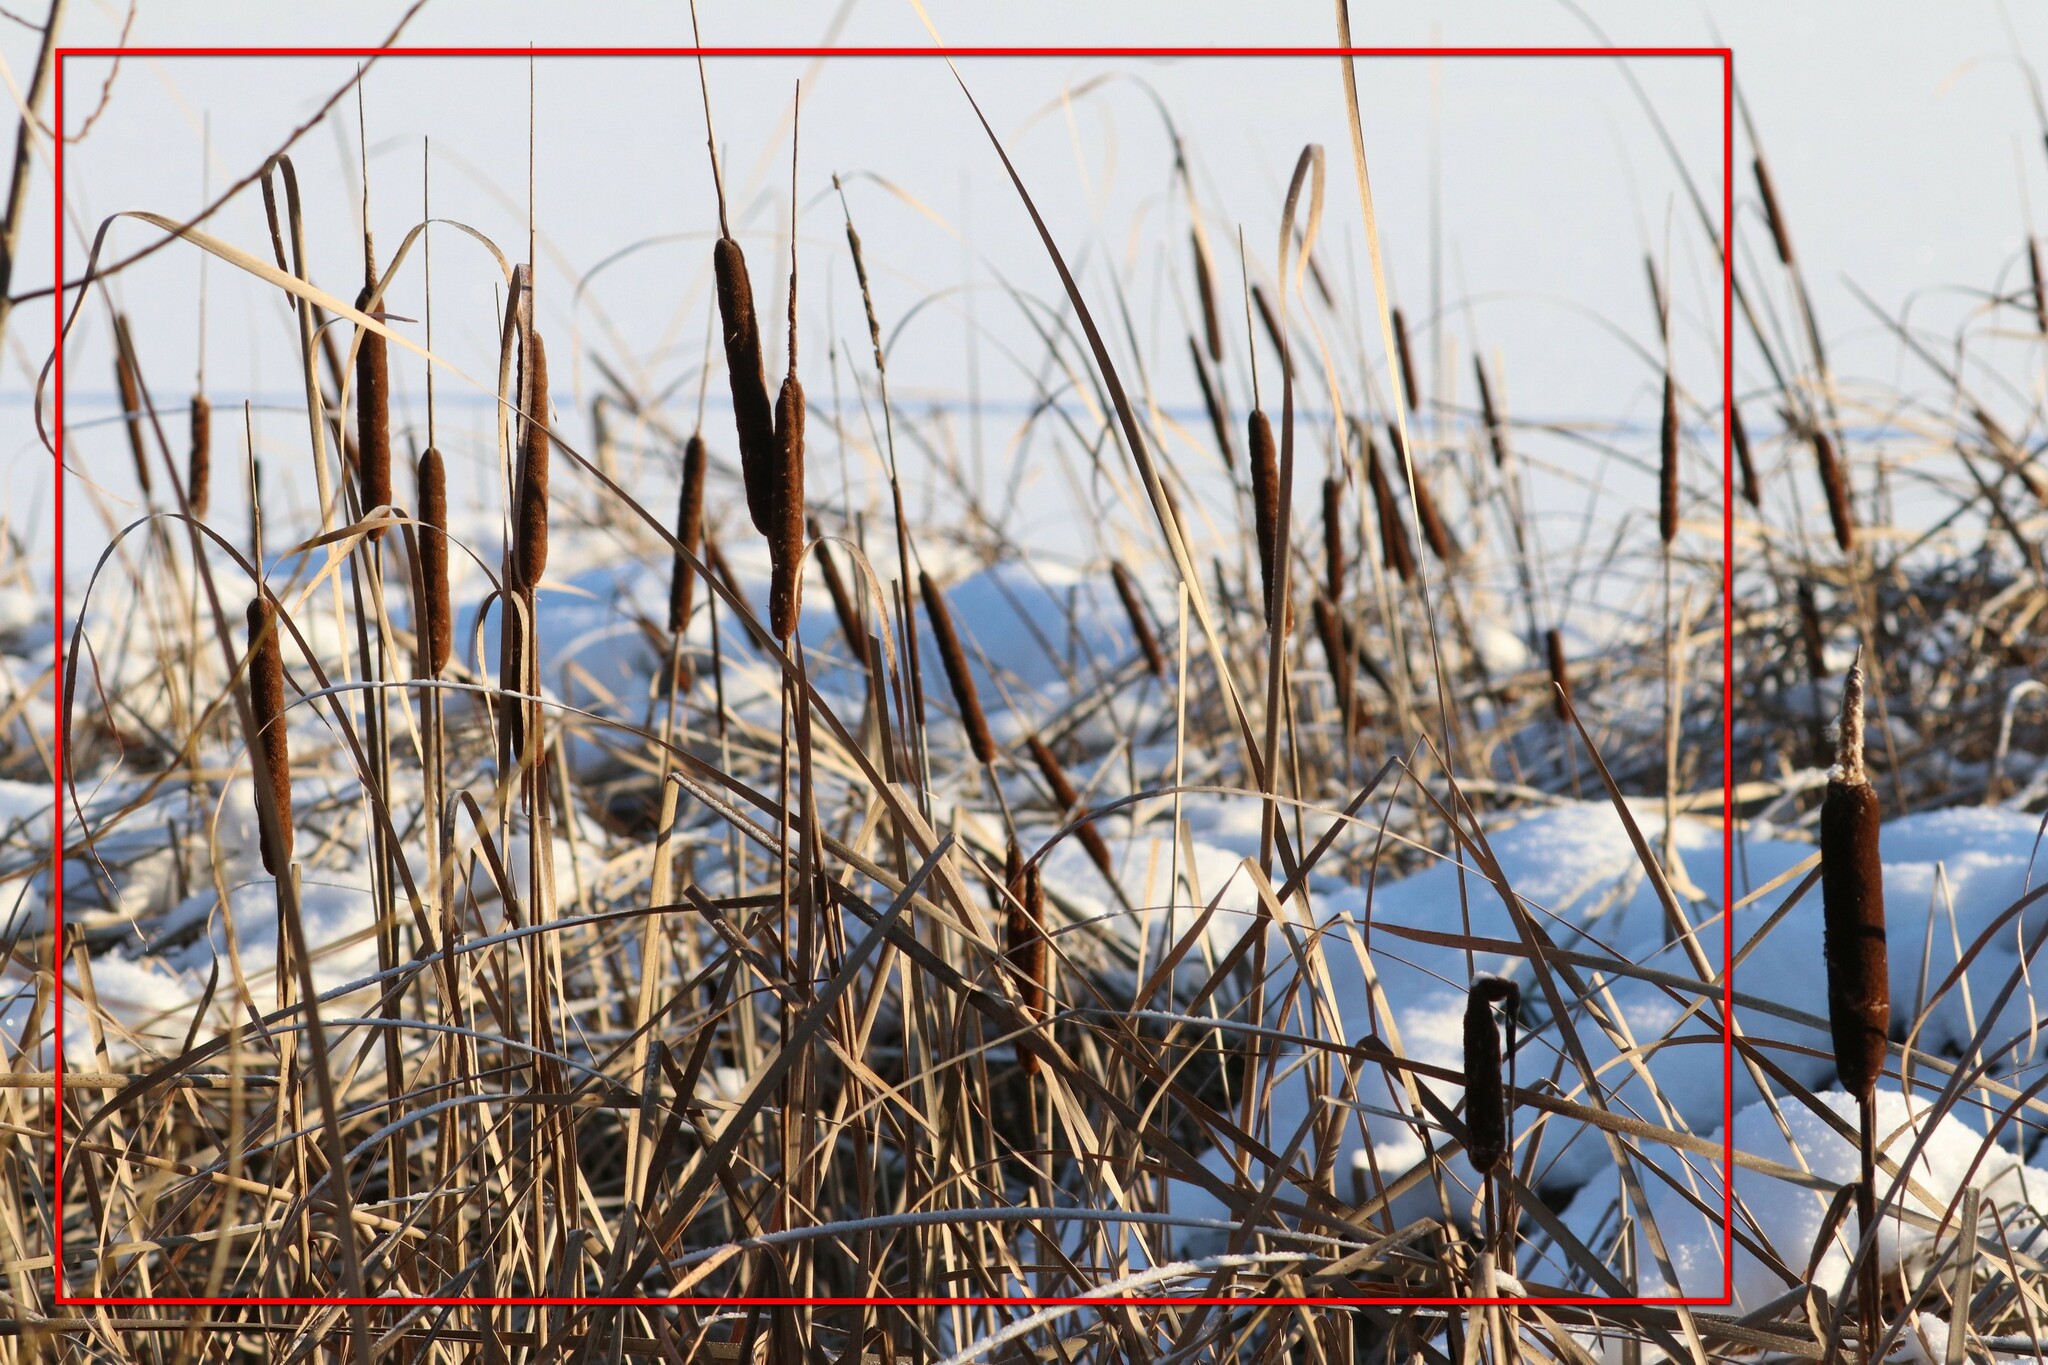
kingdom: Plantae
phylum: Tracheophyta
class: Liliopsida
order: Poales
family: Typhaceae
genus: Typha
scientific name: Typha angustifolia
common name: Lesser bulrush
